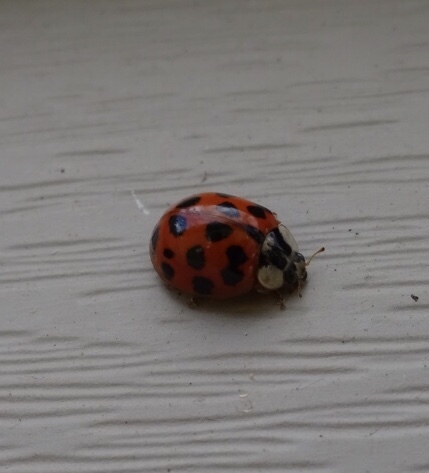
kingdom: Animalia
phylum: Arthropoda
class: Insecta
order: Coleoptera
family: Coccinellidae
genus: Harmonia
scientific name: Harmonia axyridis
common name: Harlequin ladybird
